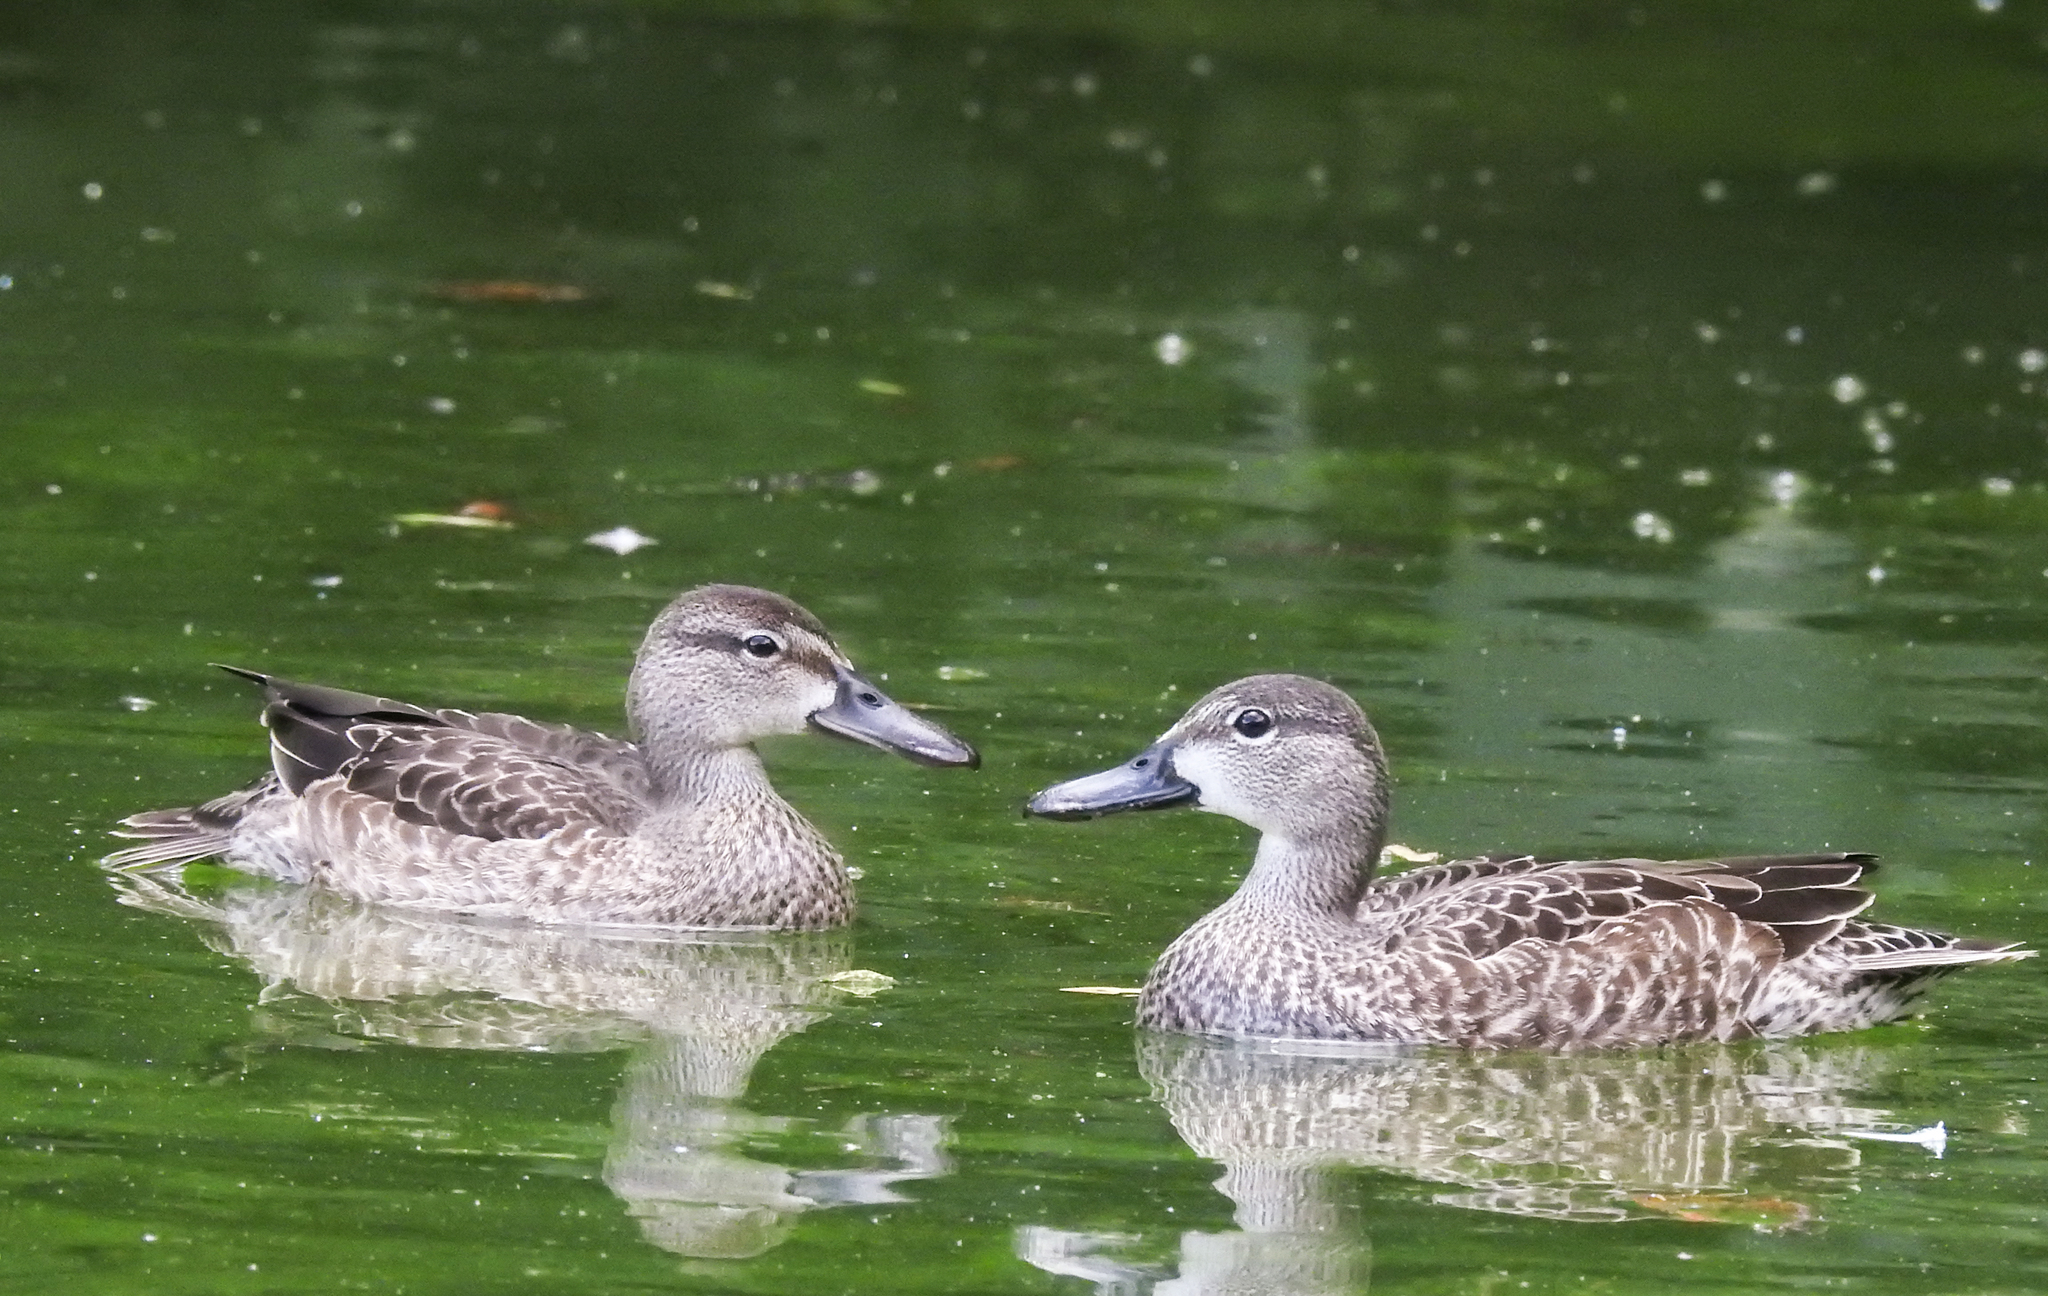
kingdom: Animalia
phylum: Chordata
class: Aves
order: Anseriformes
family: Anatidae
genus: Spatula
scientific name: Spatula discors
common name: Blue-winged teal
